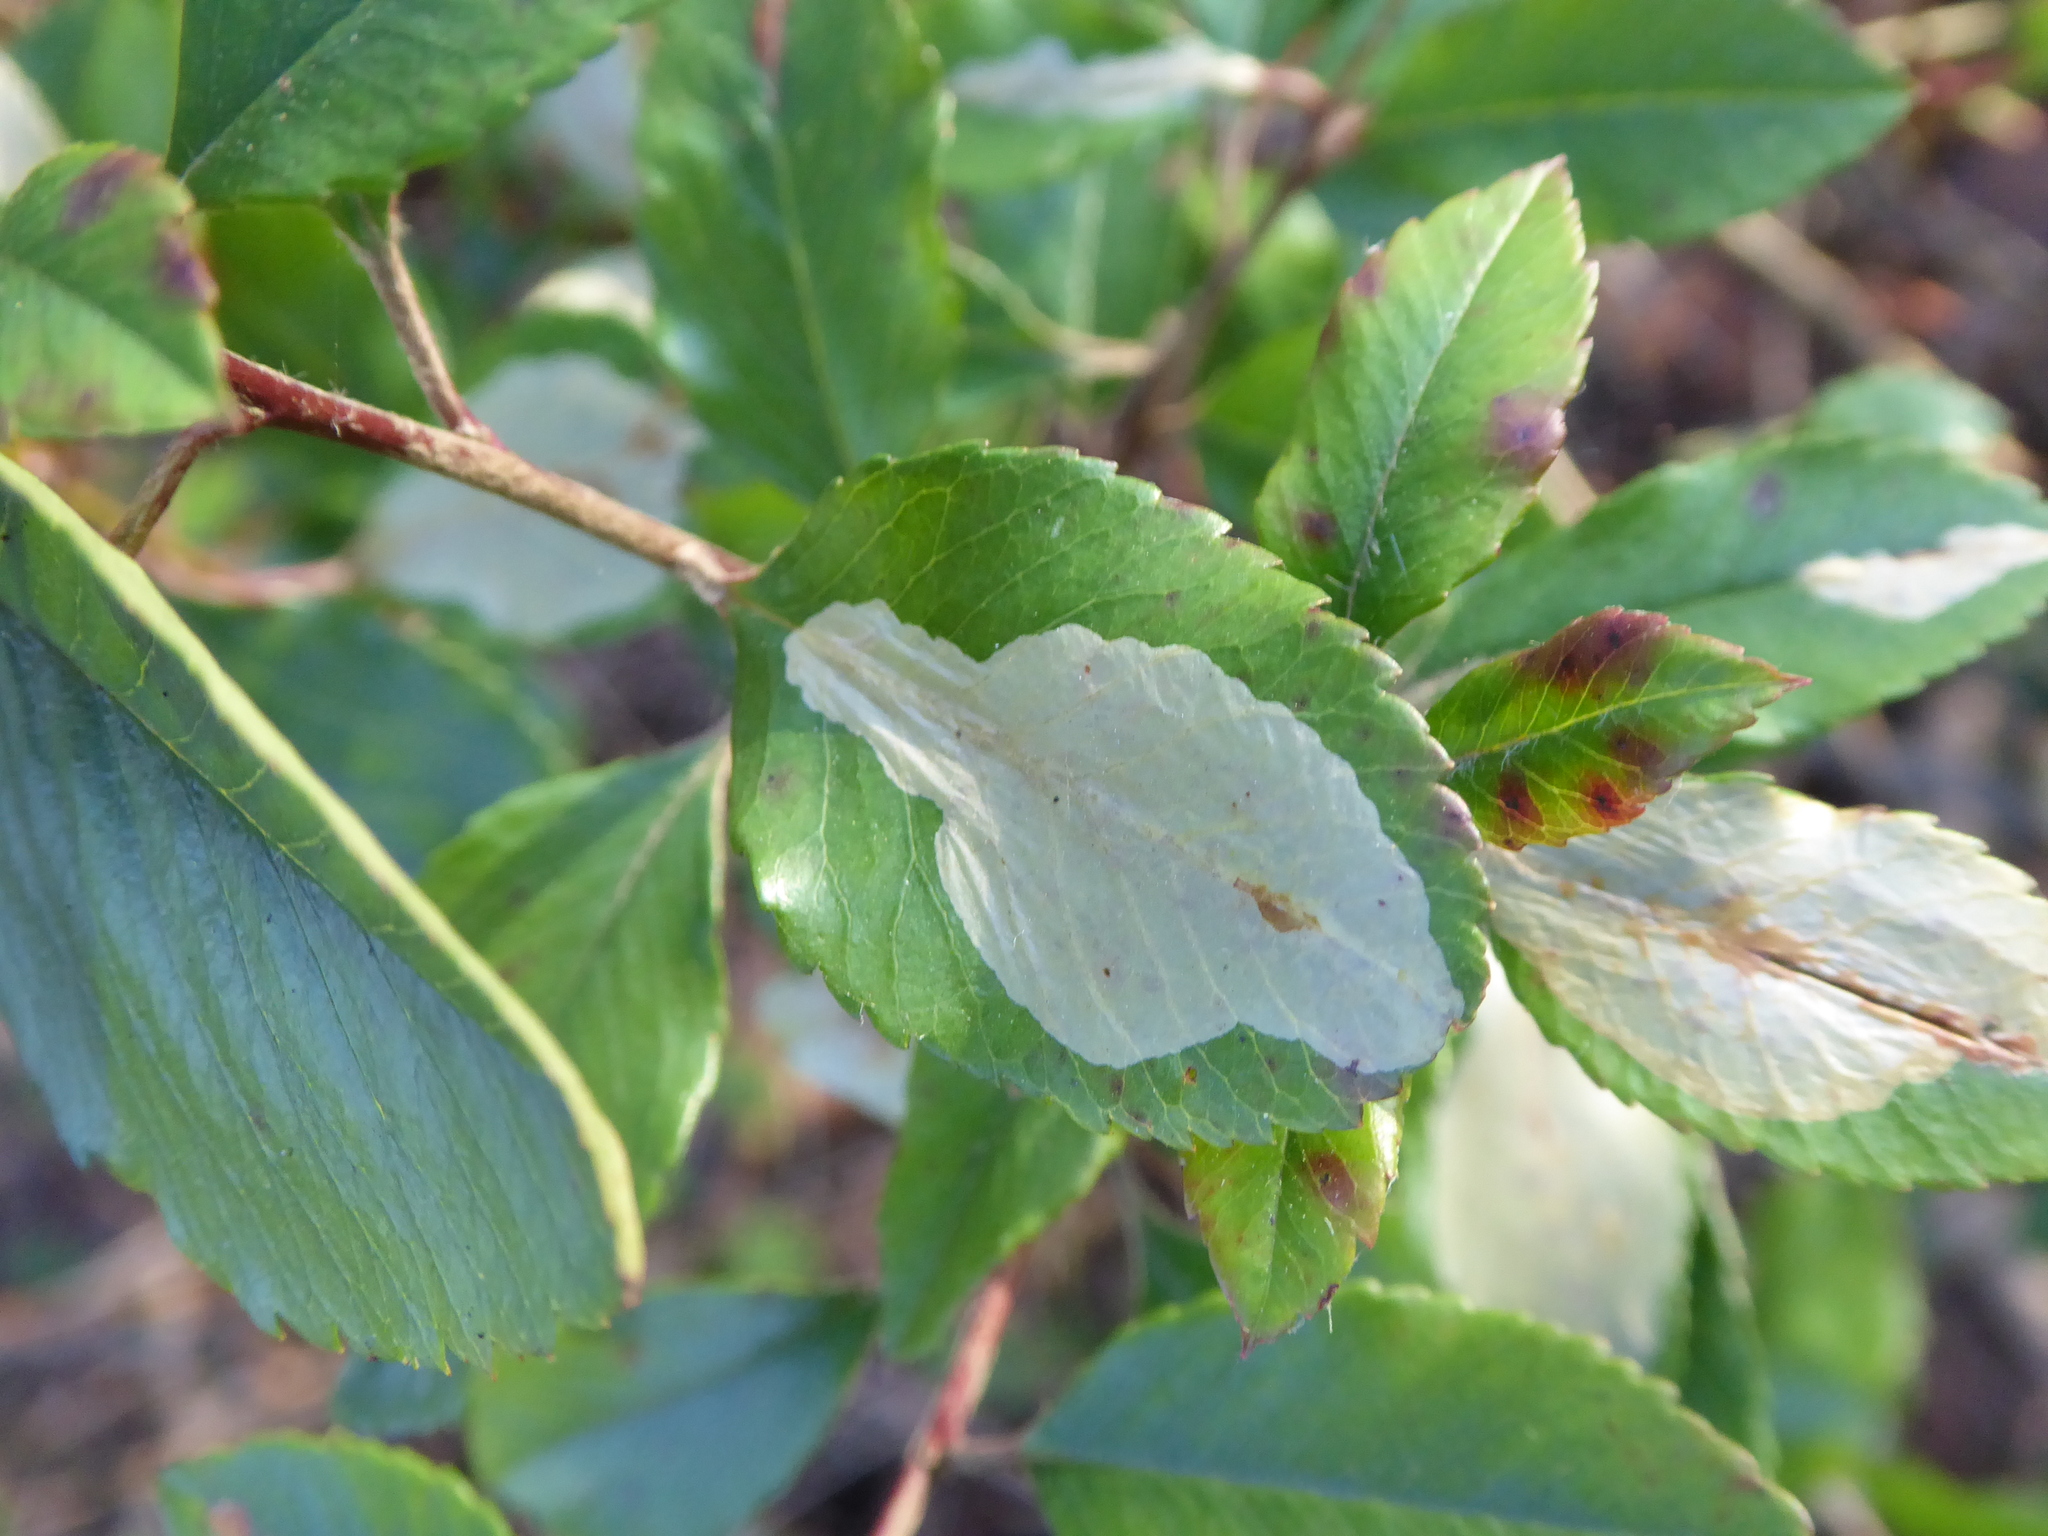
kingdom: Animalia
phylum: Arthropoda
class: Insecta
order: Lepidoptera
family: Gracillariidae
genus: Phyllonorycter
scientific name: Phyllonorycter leucographella
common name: Firethorn leaf-miner
